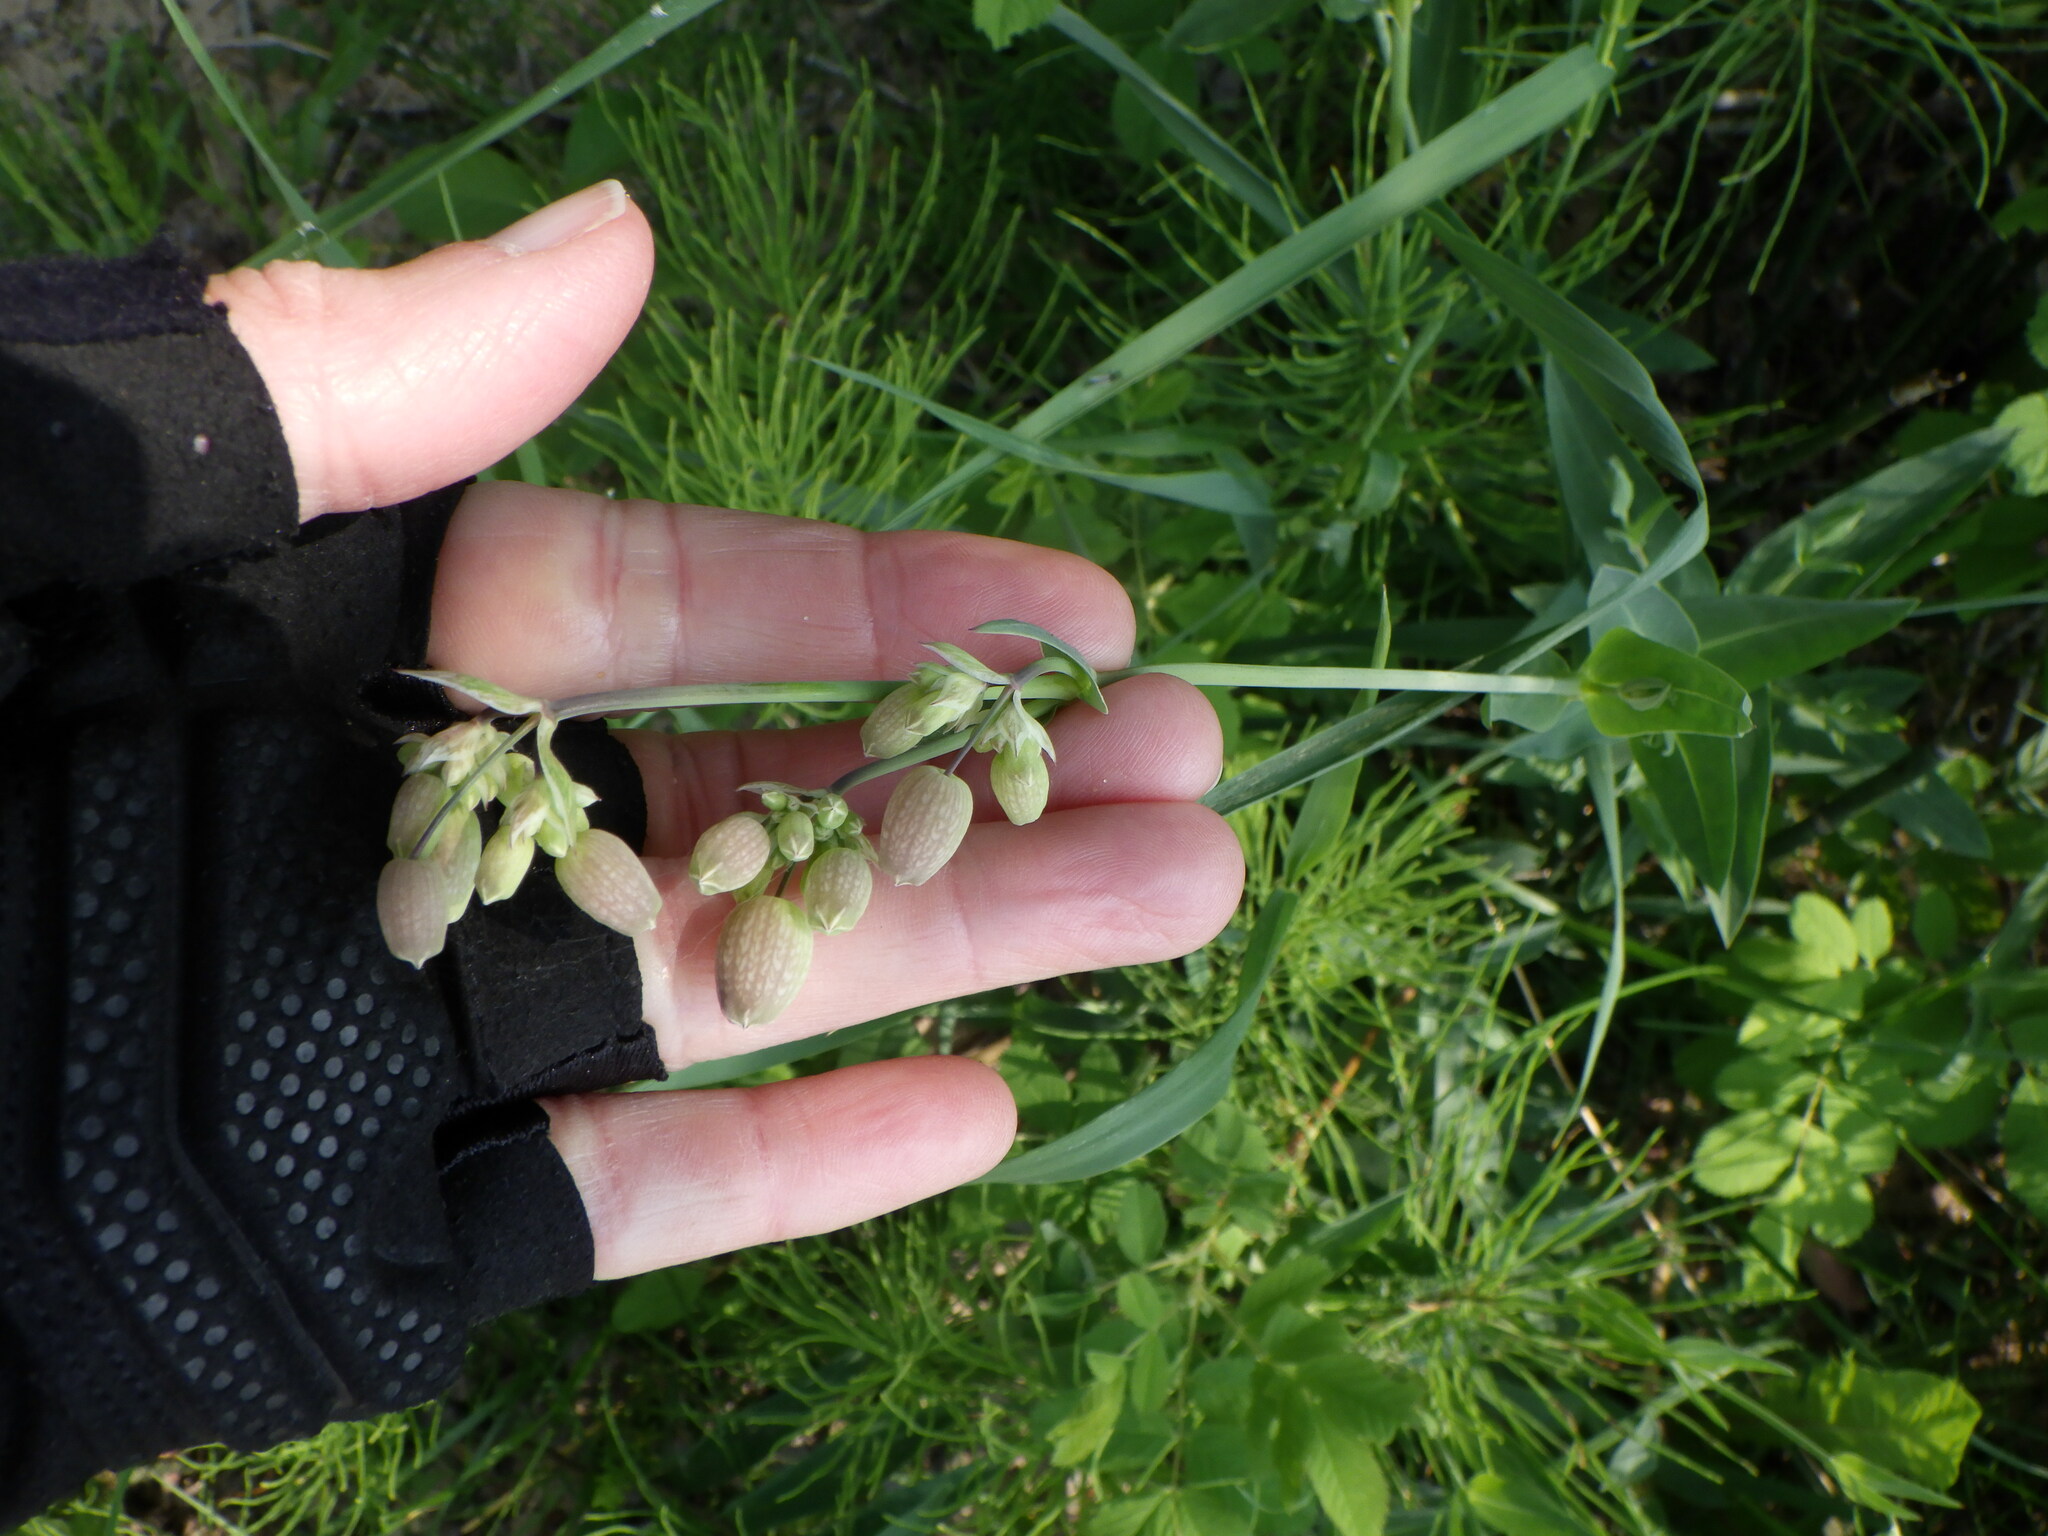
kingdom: Plantae
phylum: Tracheophyta
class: Magnoliopsida
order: Caryophyllales
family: Caryophyllaceae
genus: Silene
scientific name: Silene vulgaris
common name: Bladder campion
